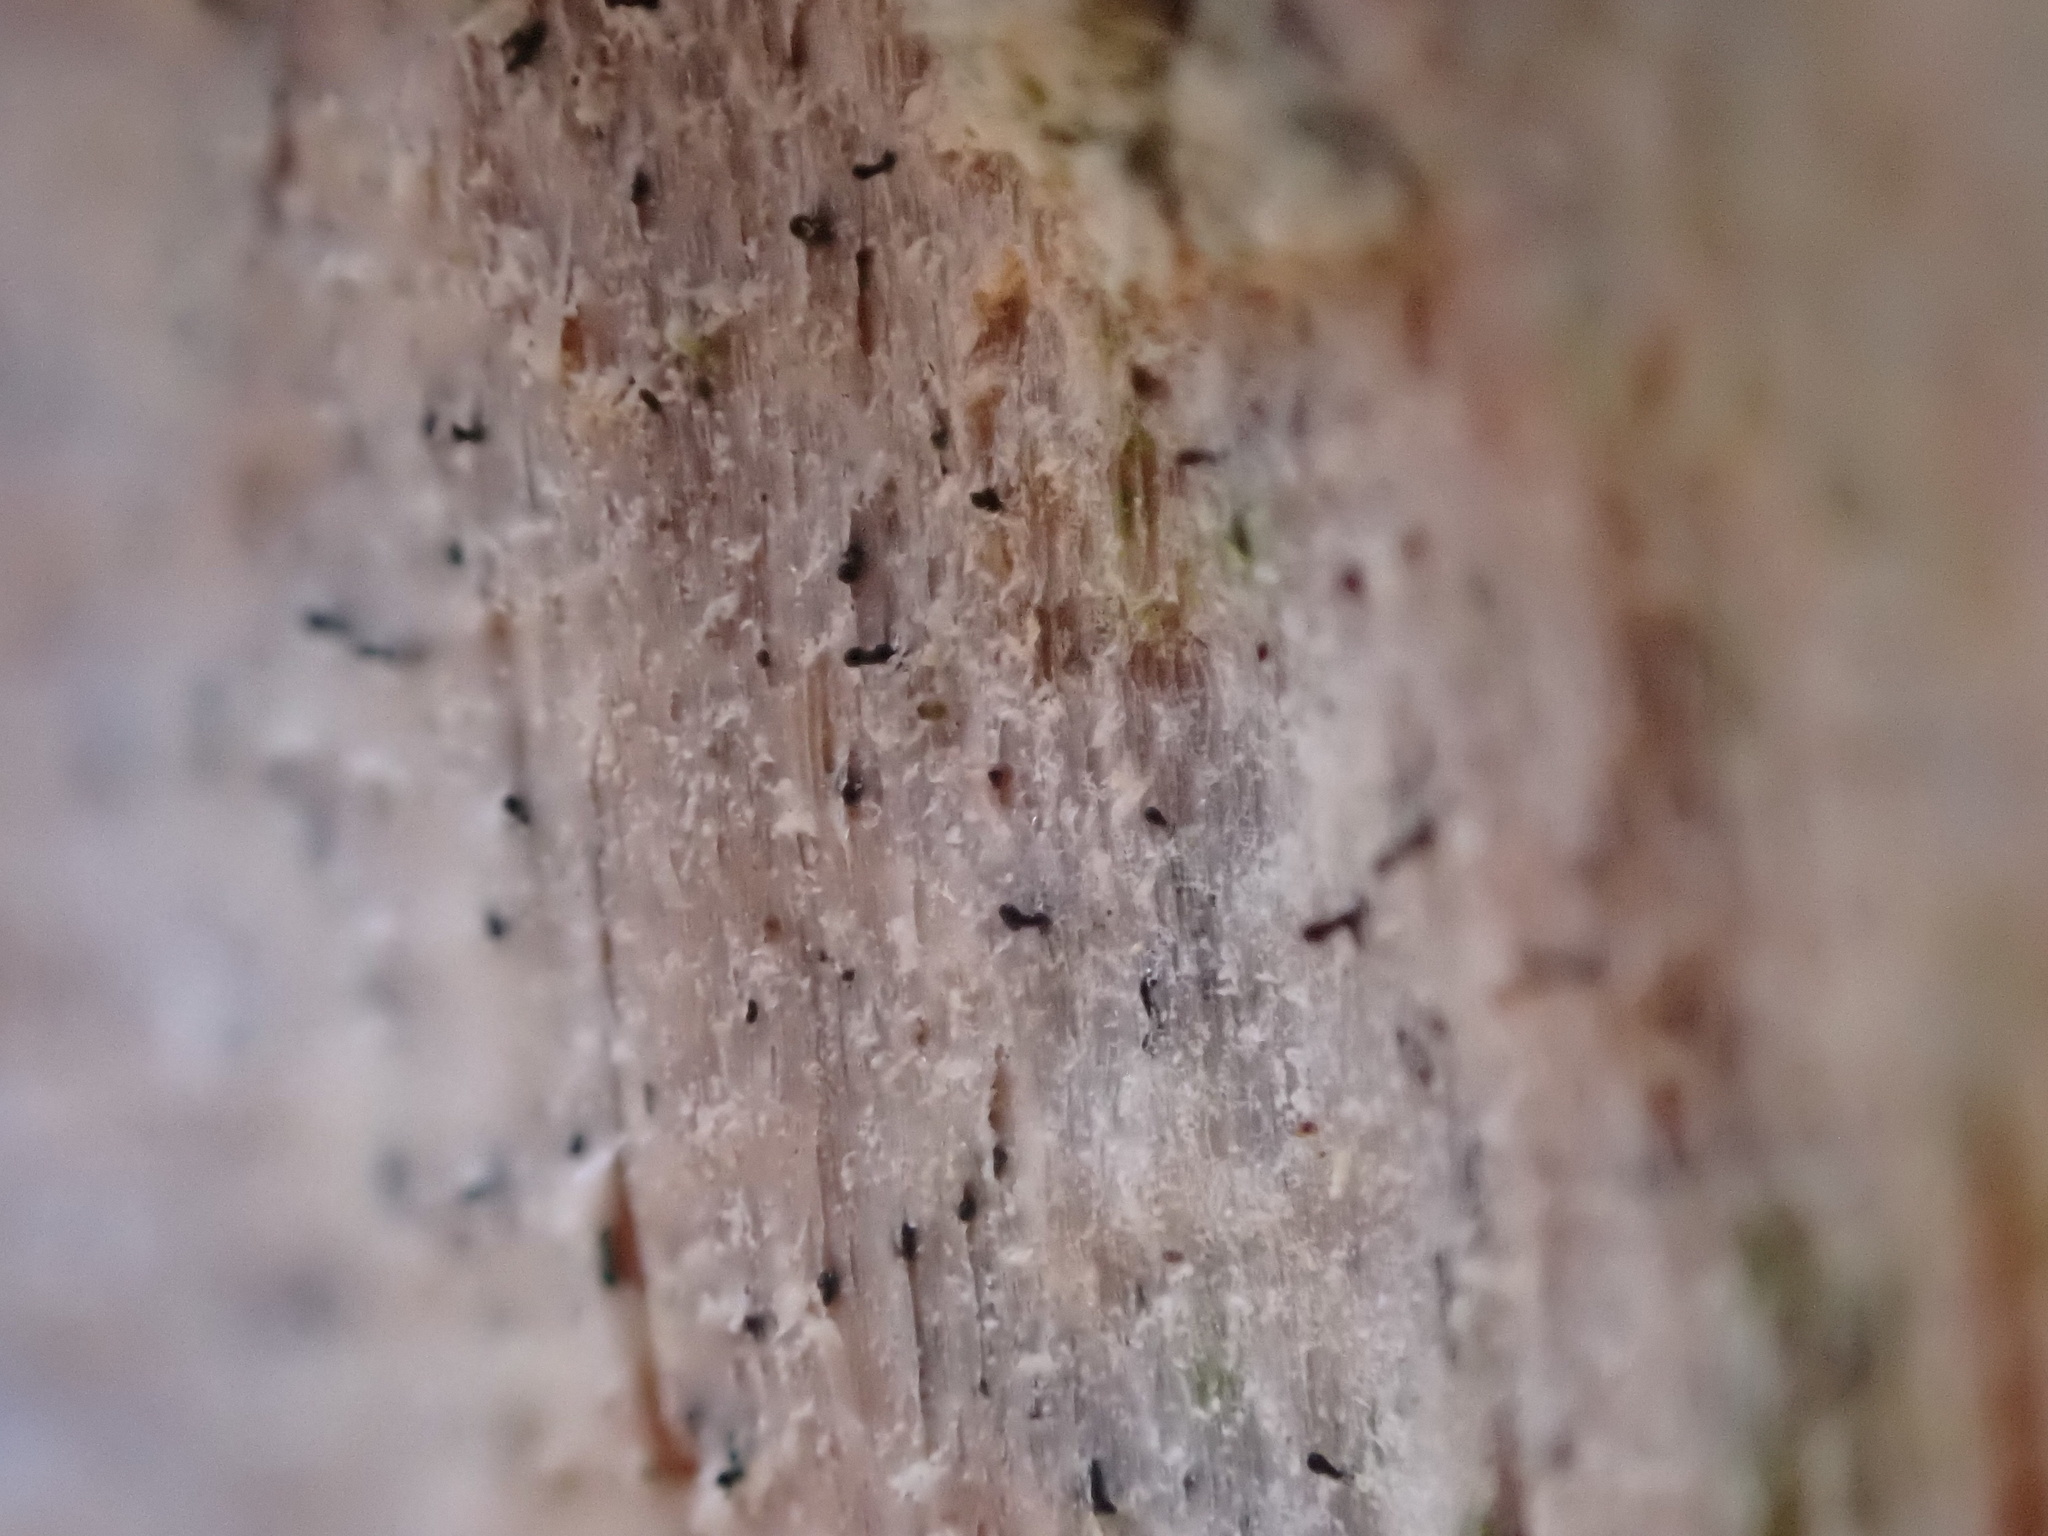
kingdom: Fungi
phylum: Ascomycota
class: Eurotiomycetes
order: Mycocaliciales
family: Mycocaliciaceae
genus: Chaenothecopsis
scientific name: Chaenothecopsis pusilla
